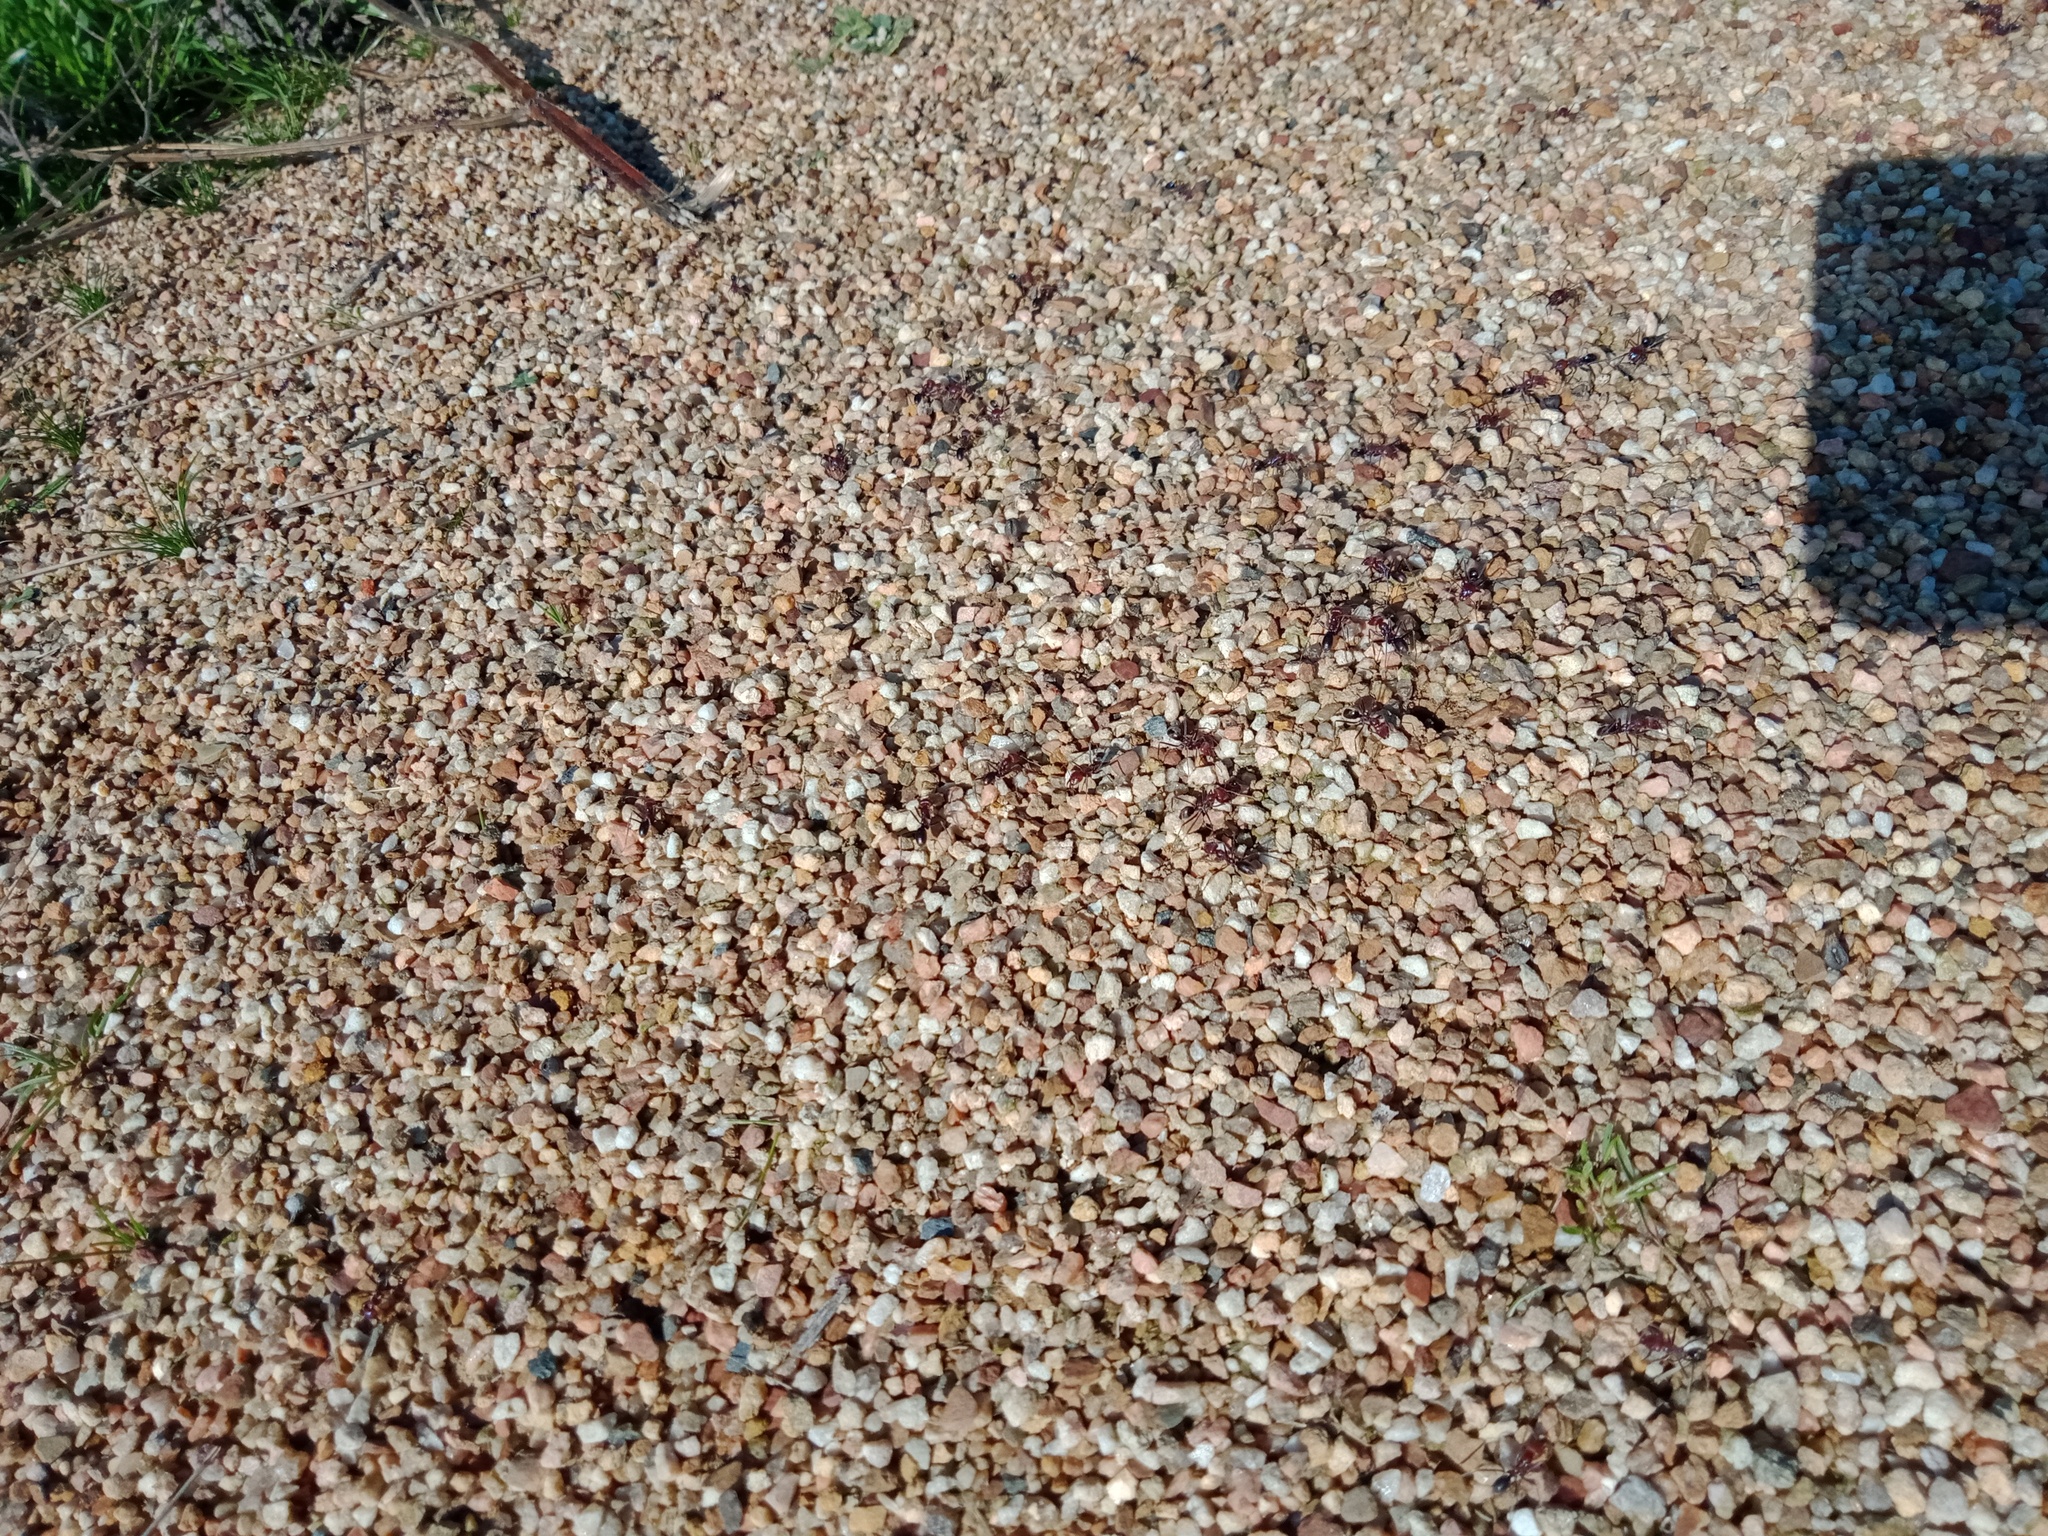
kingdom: Animalia
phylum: Arthropoda
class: Insecta
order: Hymenoptera
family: Formicidae
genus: Iridomyrmex
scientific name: Iridomyrmex purpureus
